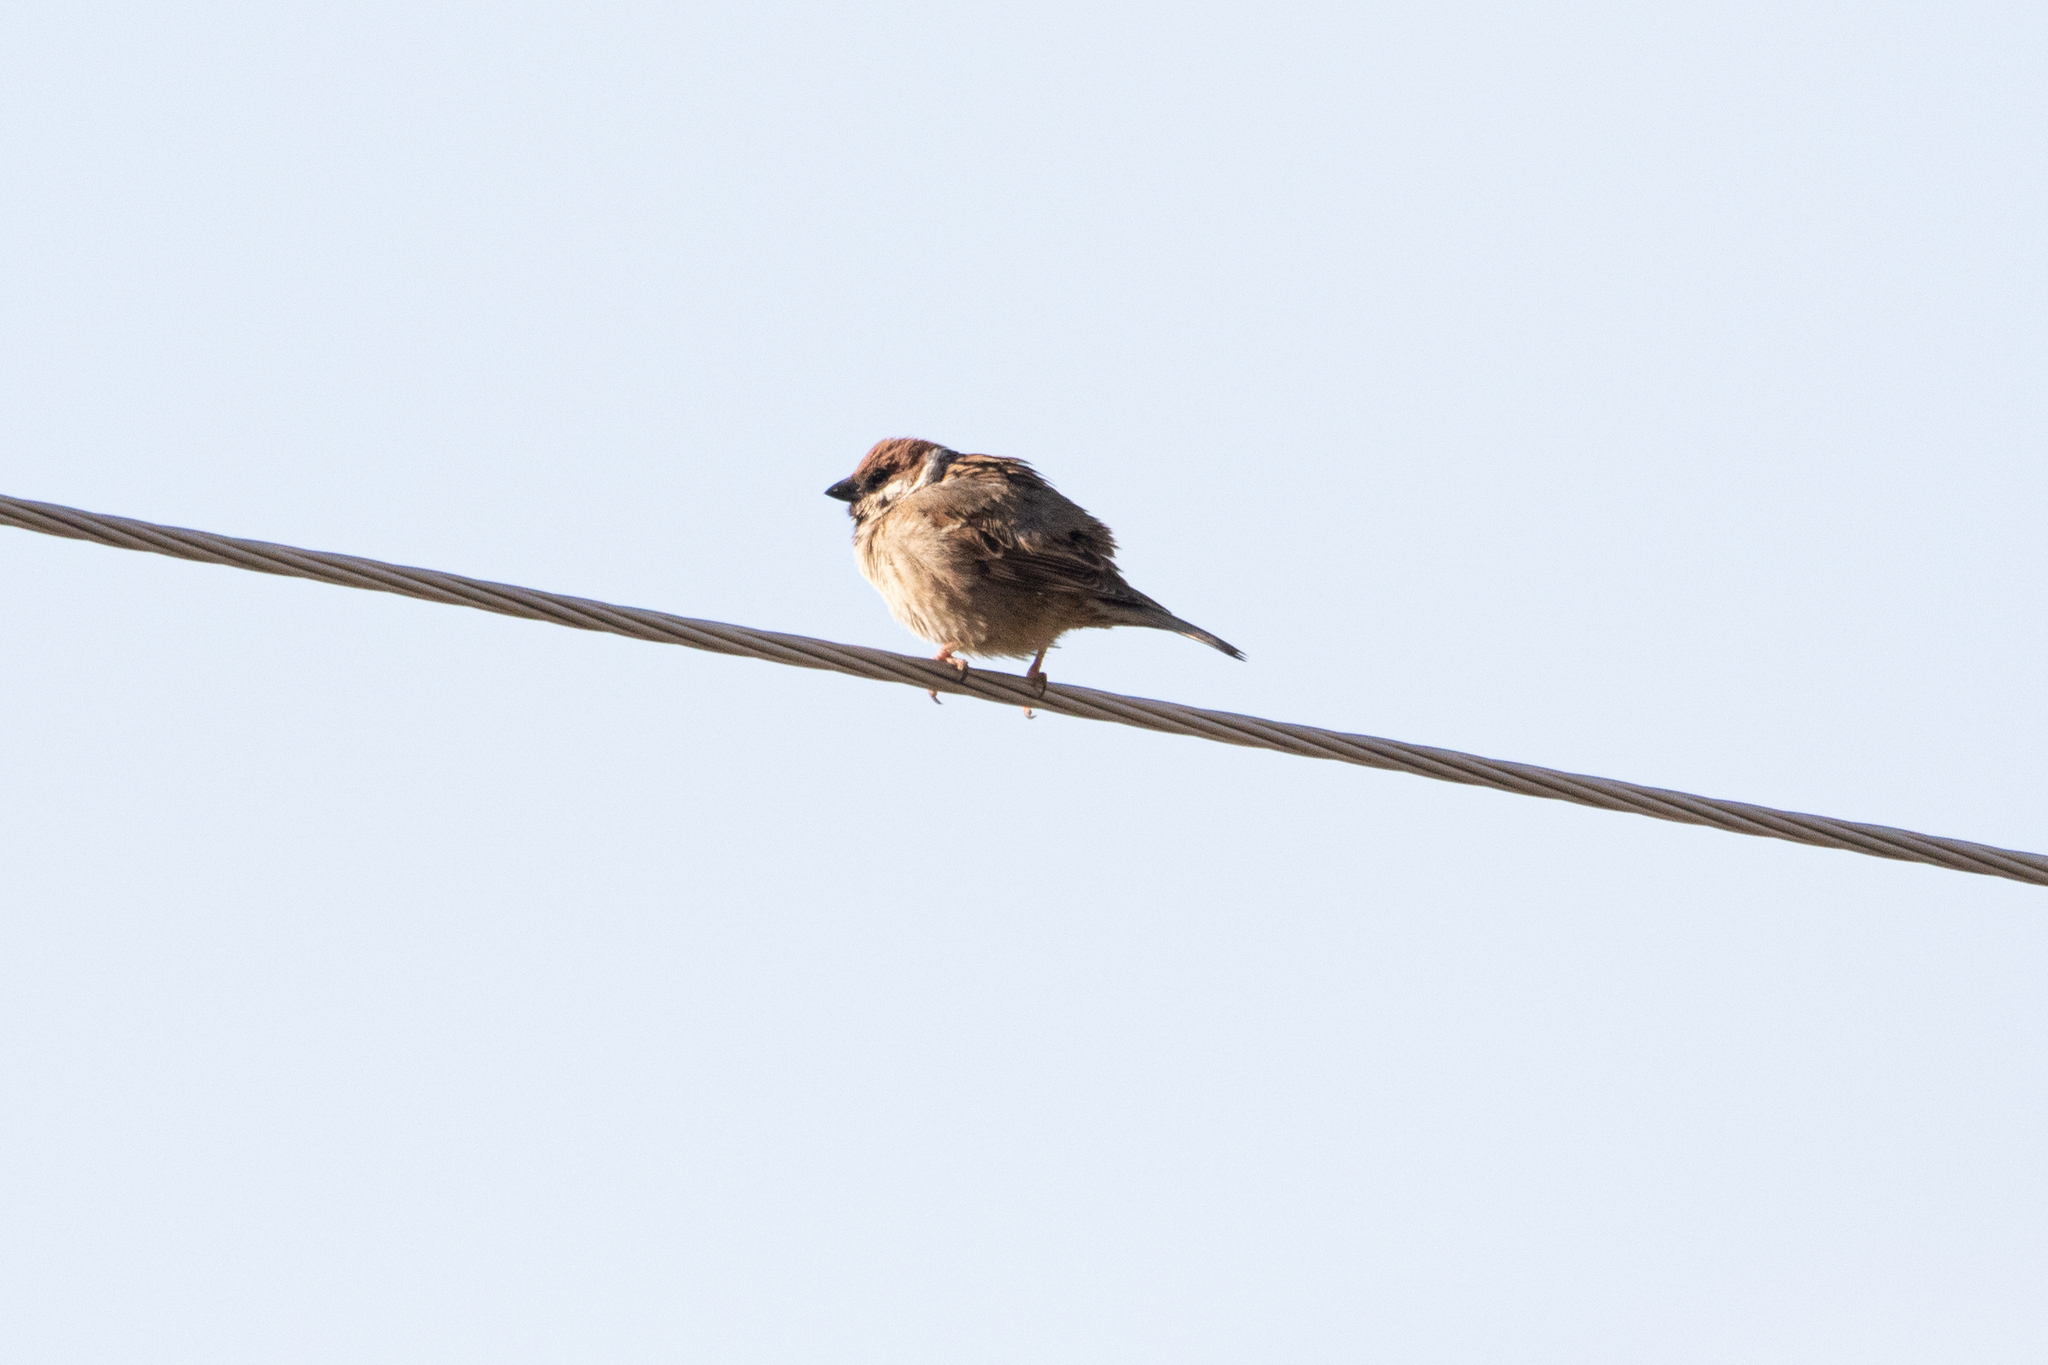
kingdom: Animalia
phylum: Chordata
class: Aves
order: Passeriformes
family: Passeridae
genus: Passer
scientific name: Passer montanus
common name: Eurasian tree sparrow
